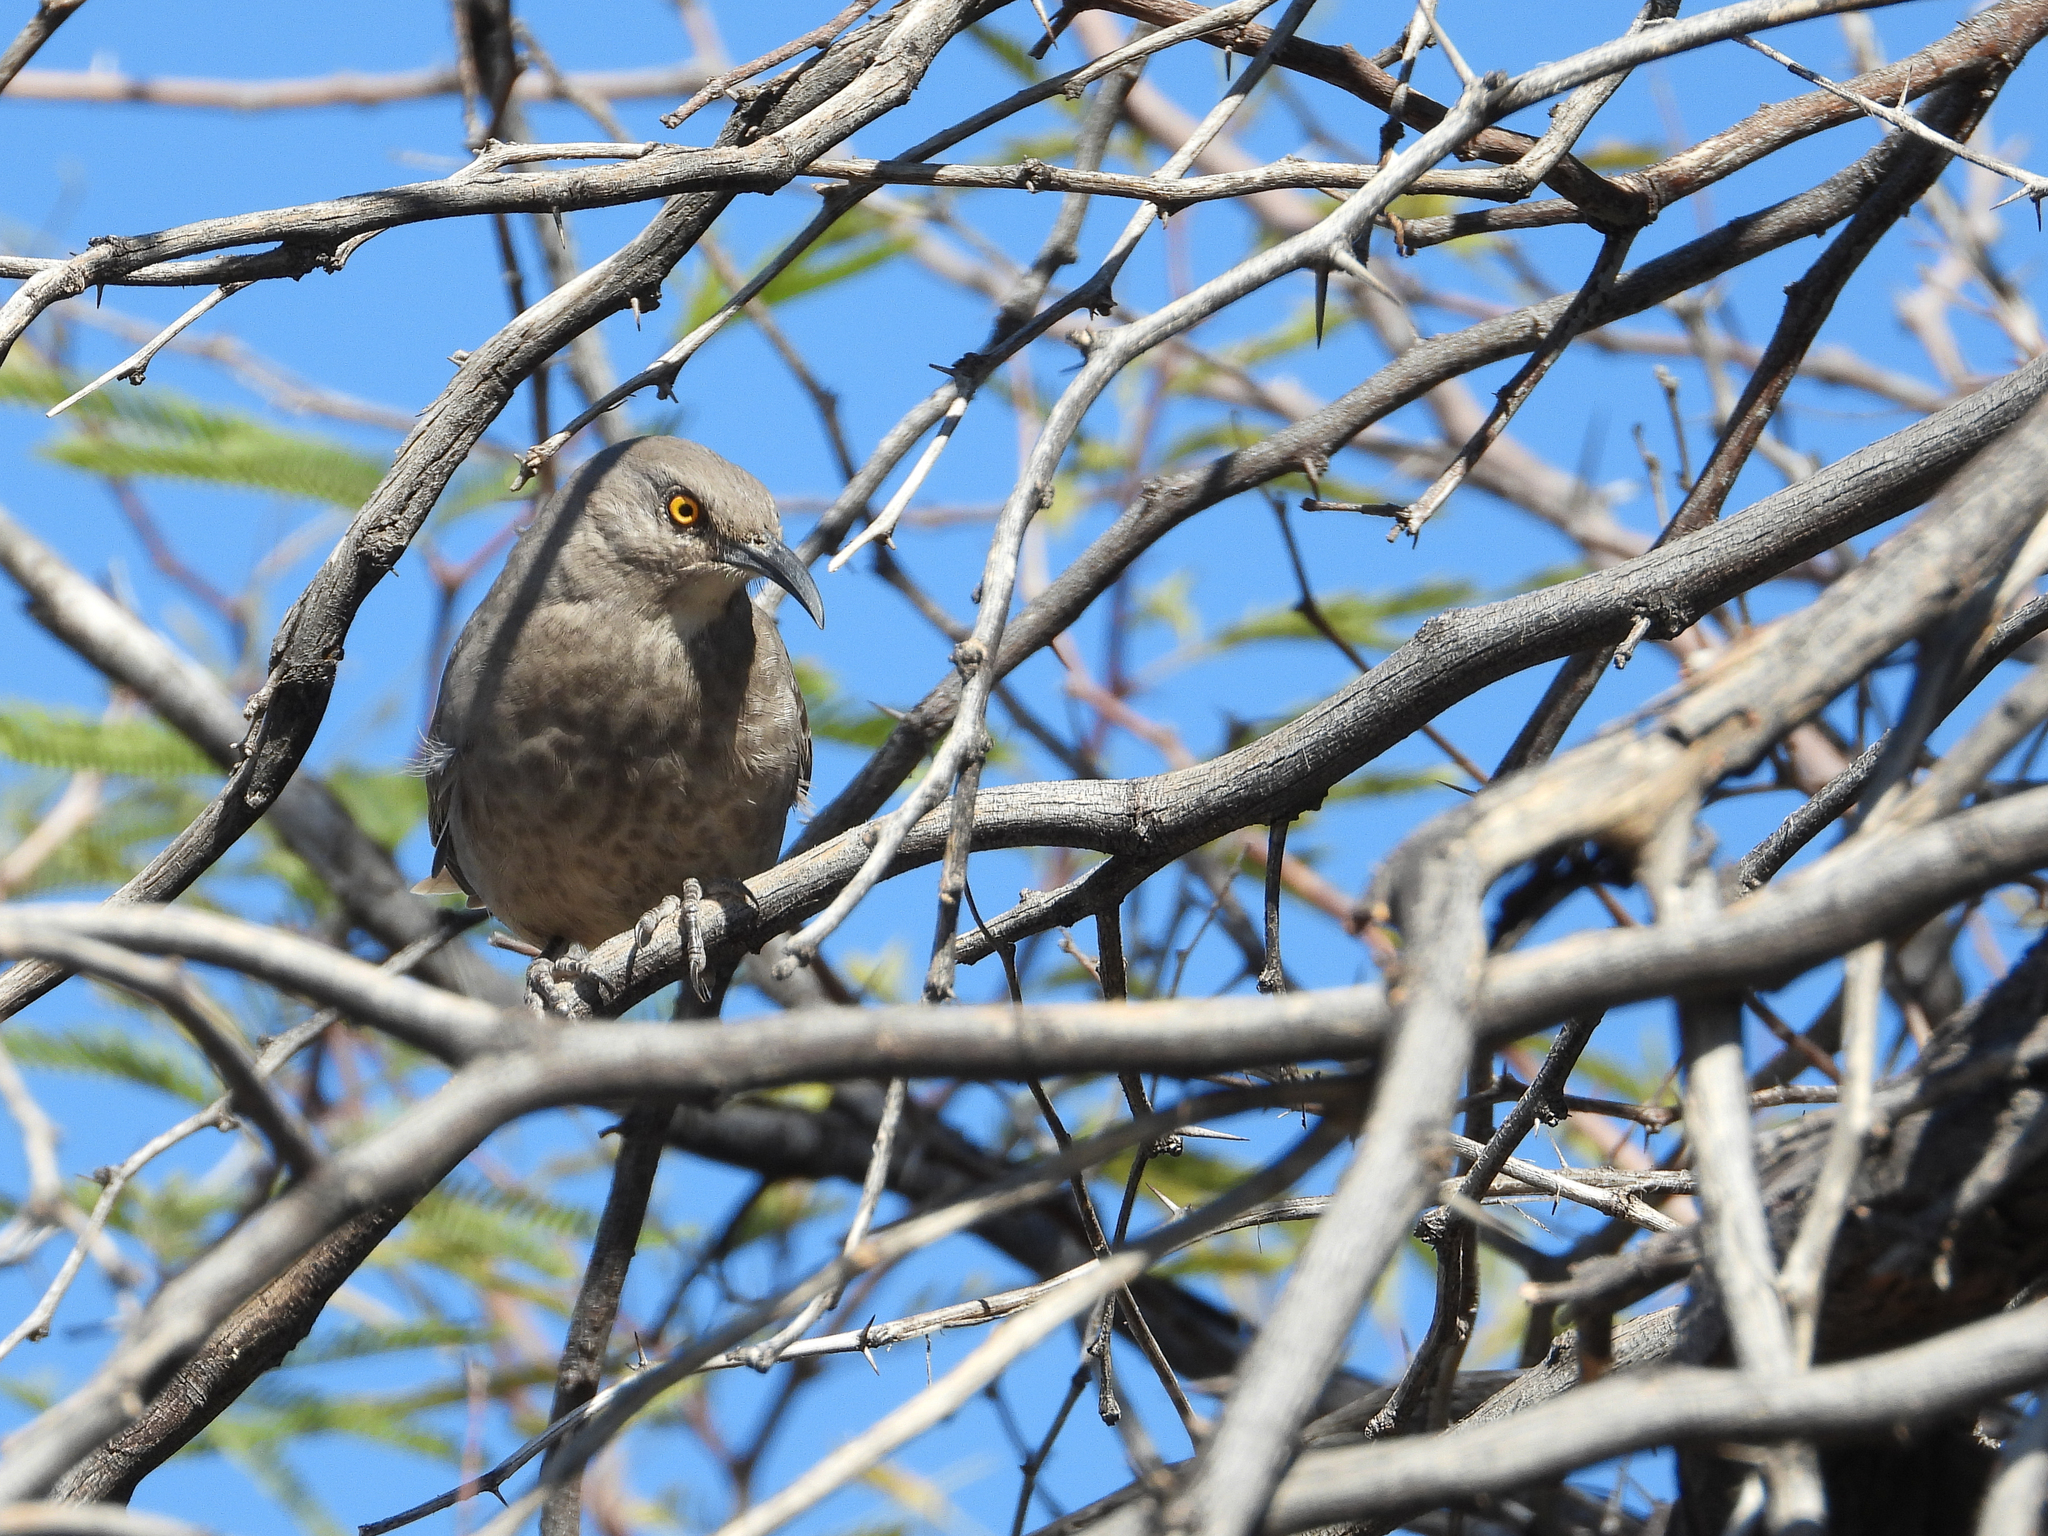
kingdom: Animalia
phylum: Chordata
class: Aves
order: Passeriformes
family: Mimidae
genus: Toxostoma
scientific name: Toxostoma curvirostre
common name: Curve-billed thrasher
